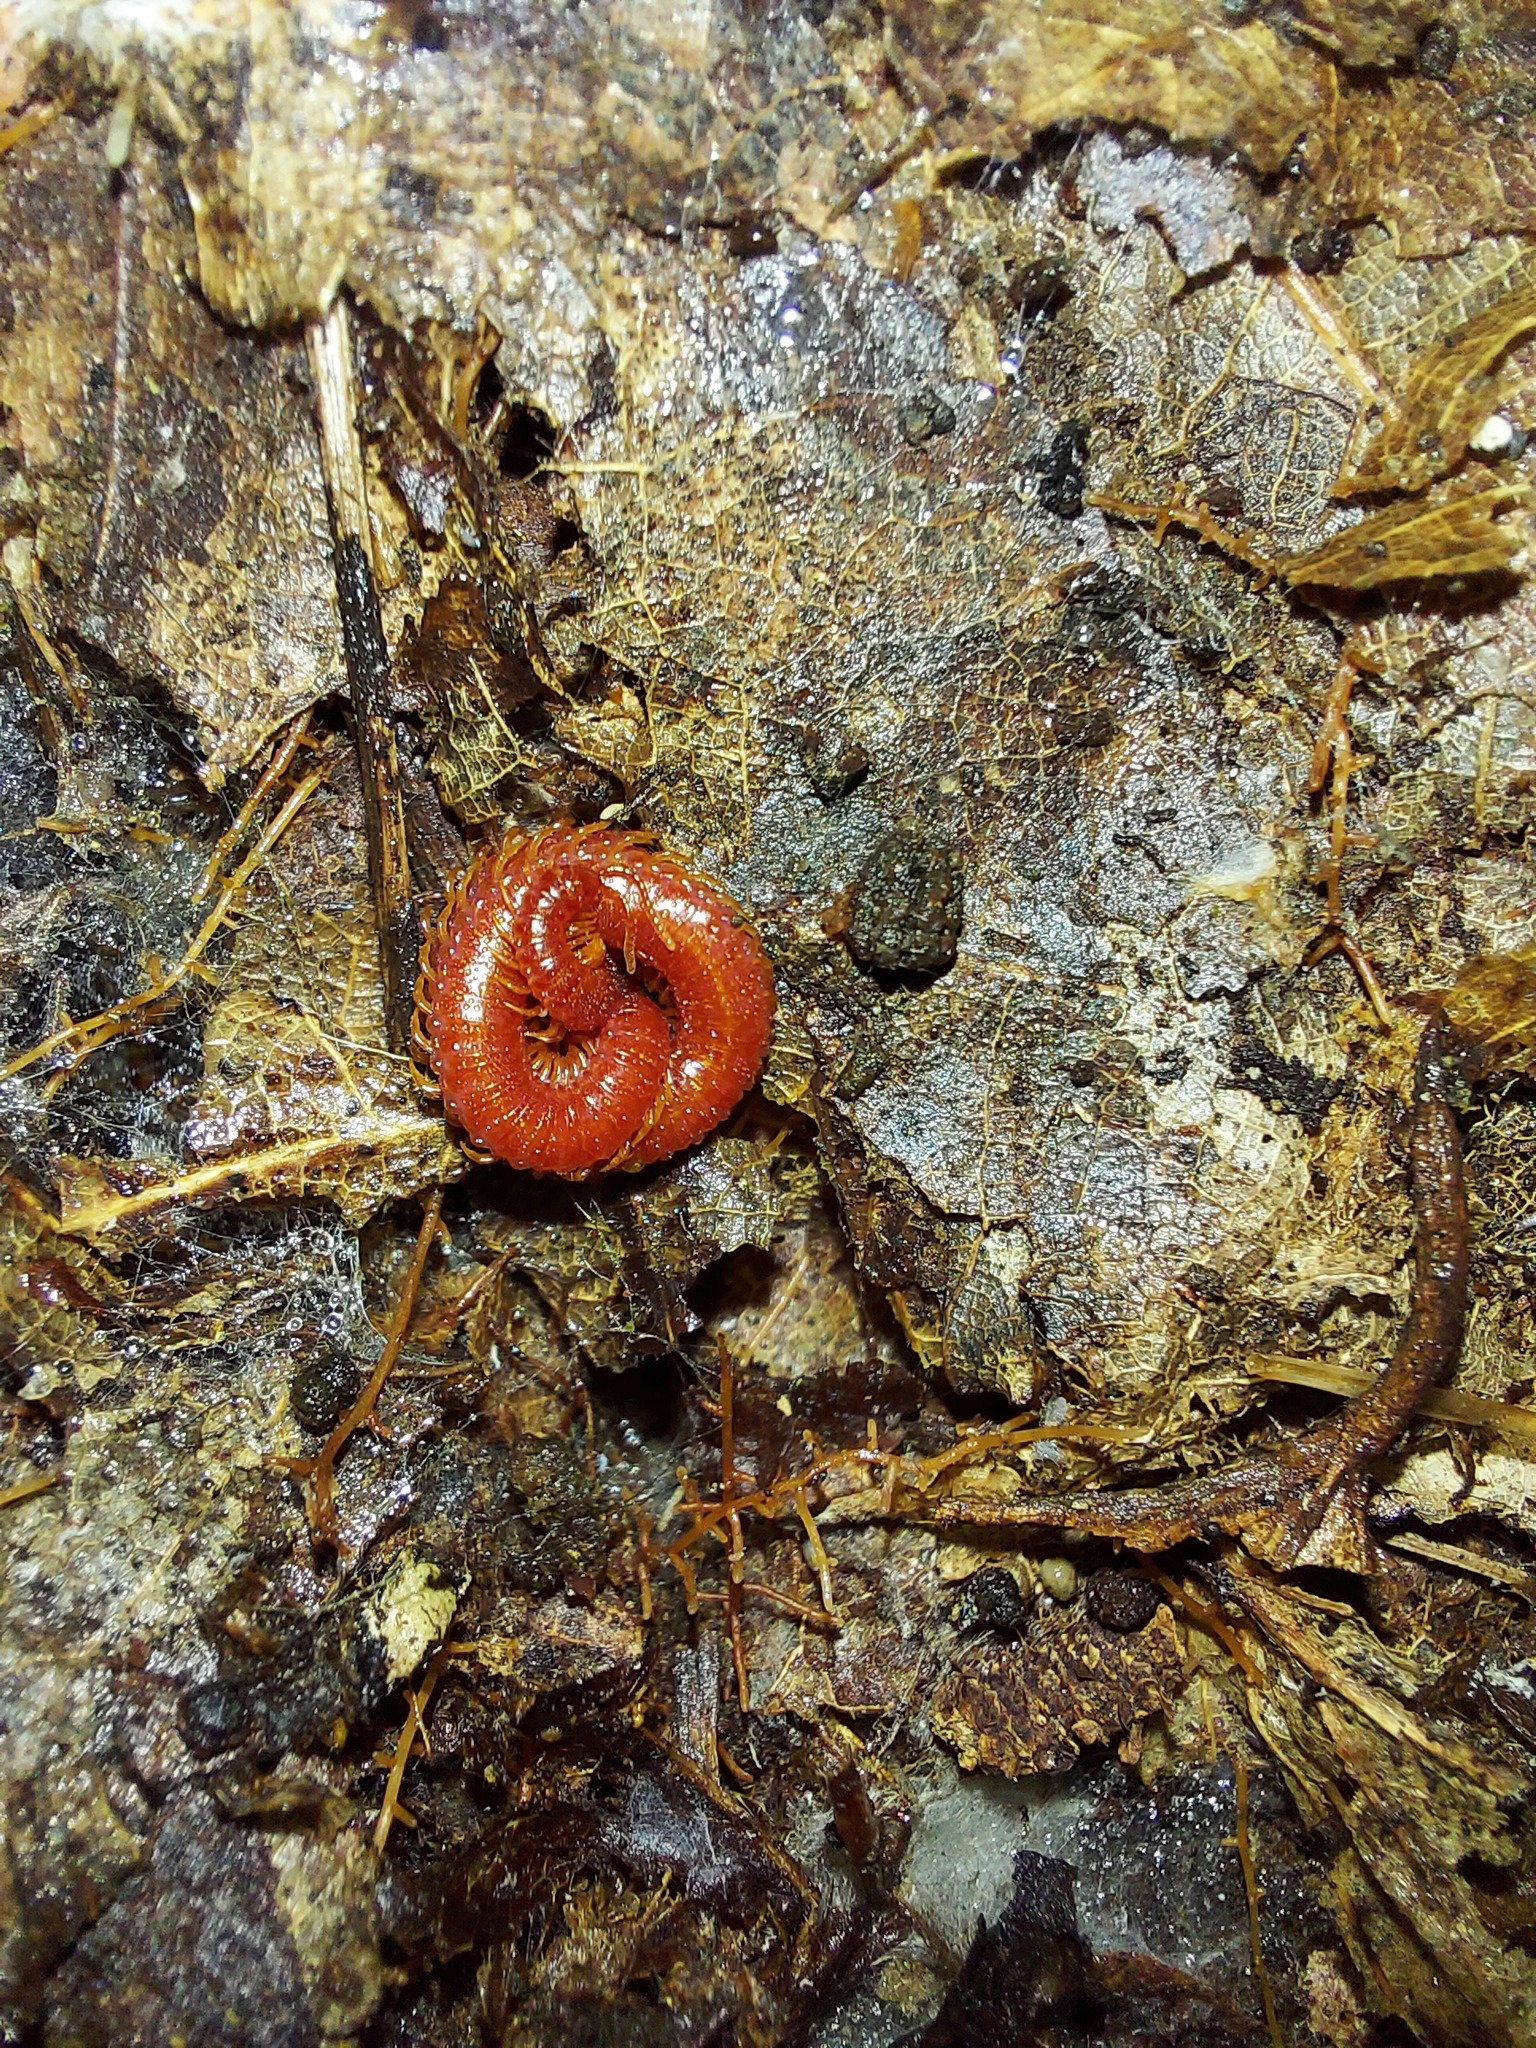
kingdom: Animalia
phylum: Arthropoda
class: Chilopoda
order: Geophilomorpha
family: Linotaeniidae
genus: Strigamia
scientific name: Strigamia bidens
